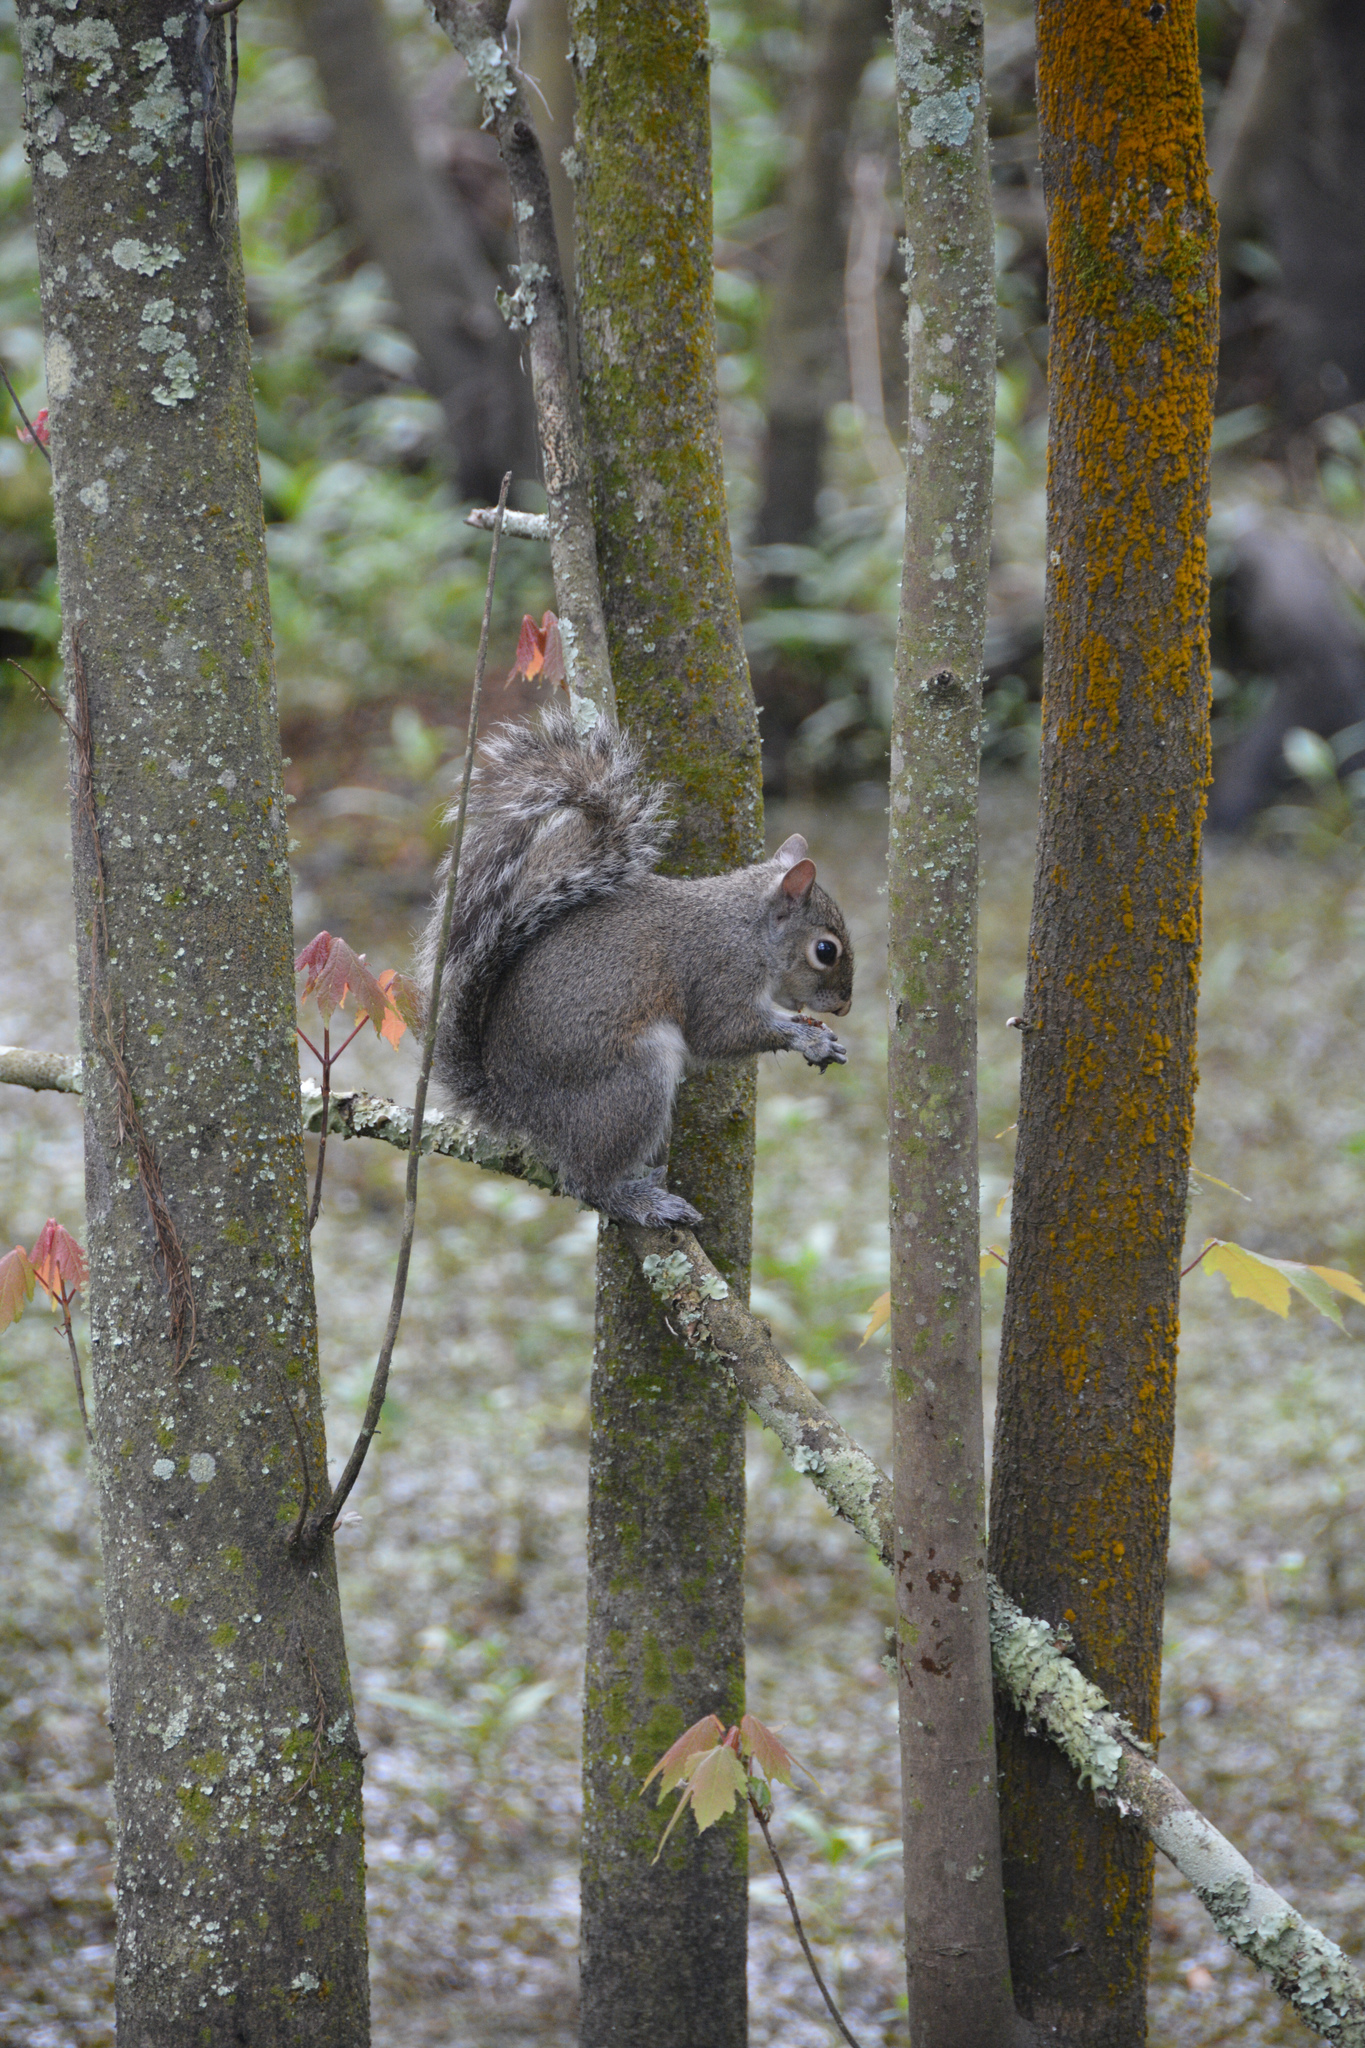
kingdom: Animalia
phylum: Chordata
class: Mammalia
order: Rodentia
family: Sciuridae
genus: Sciurus
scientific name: Sciurus carolinensis
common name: Eastern gray squirrel
